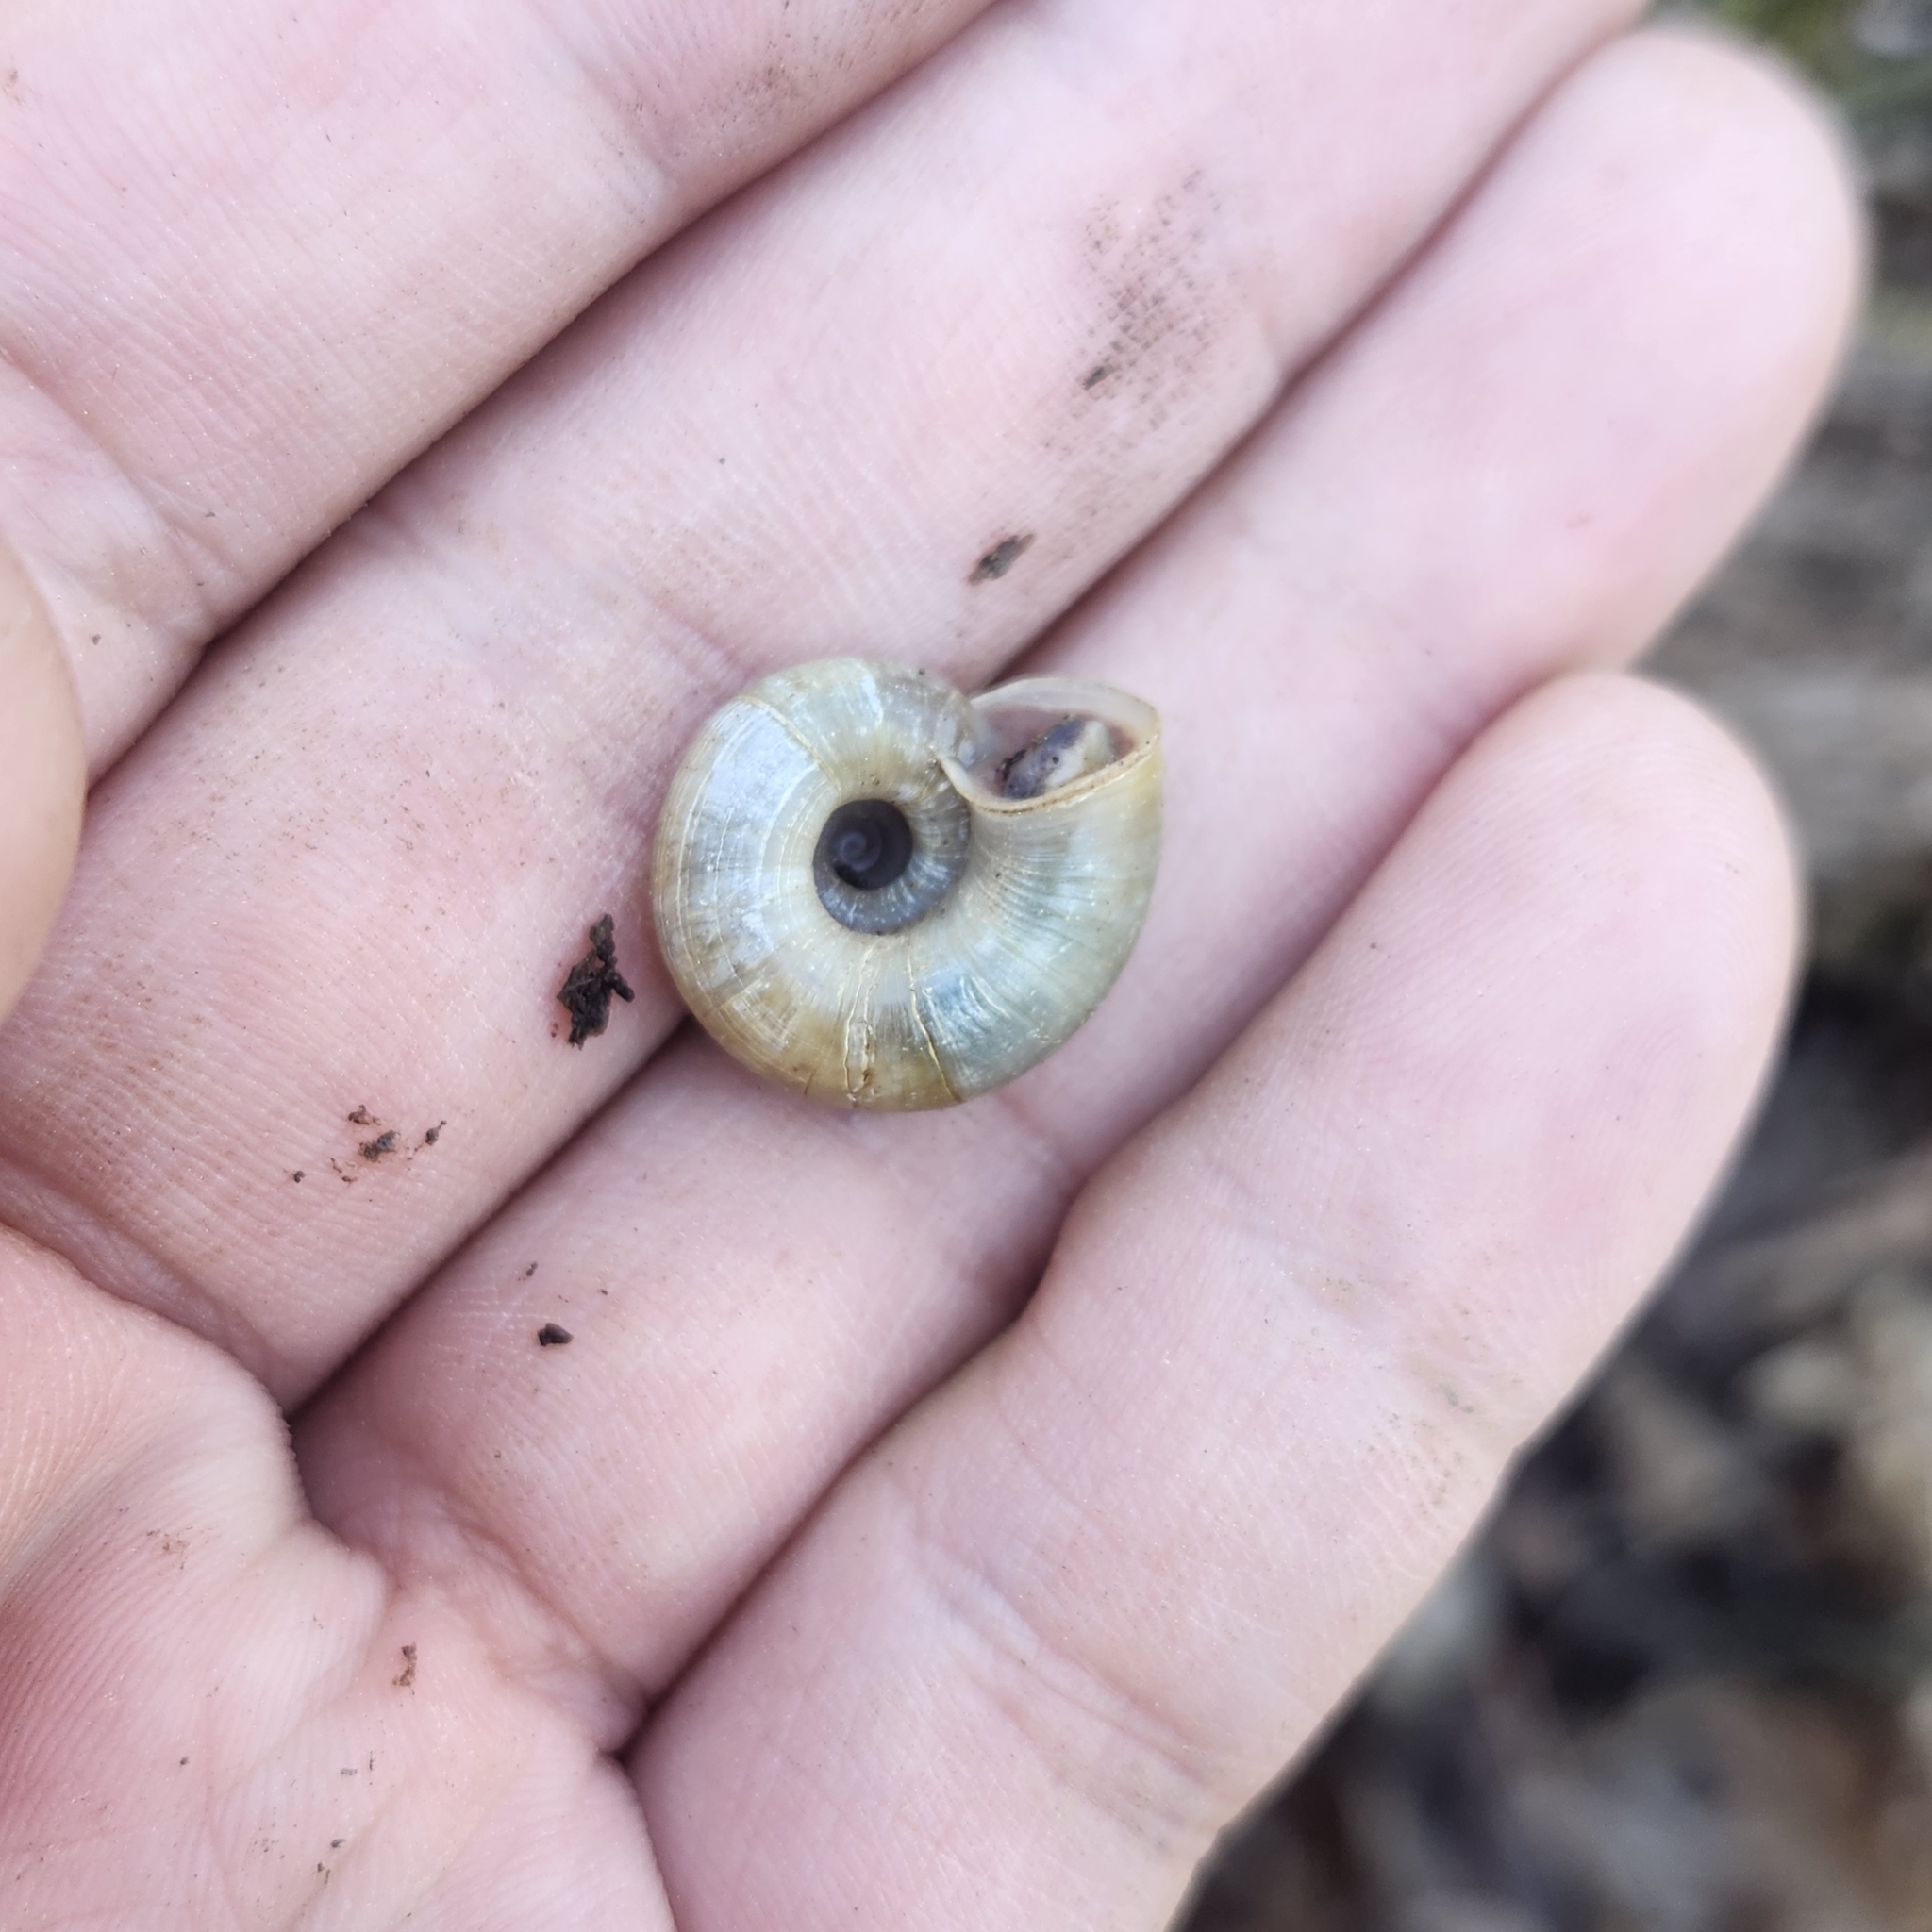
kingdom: Animalia
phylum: Mollusca
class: Gastropoda
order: Stylommatophora
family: Haplotrematidae
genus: Haplotrema
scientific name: Haplotrema concavum
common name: Gray-foot lancetooth
